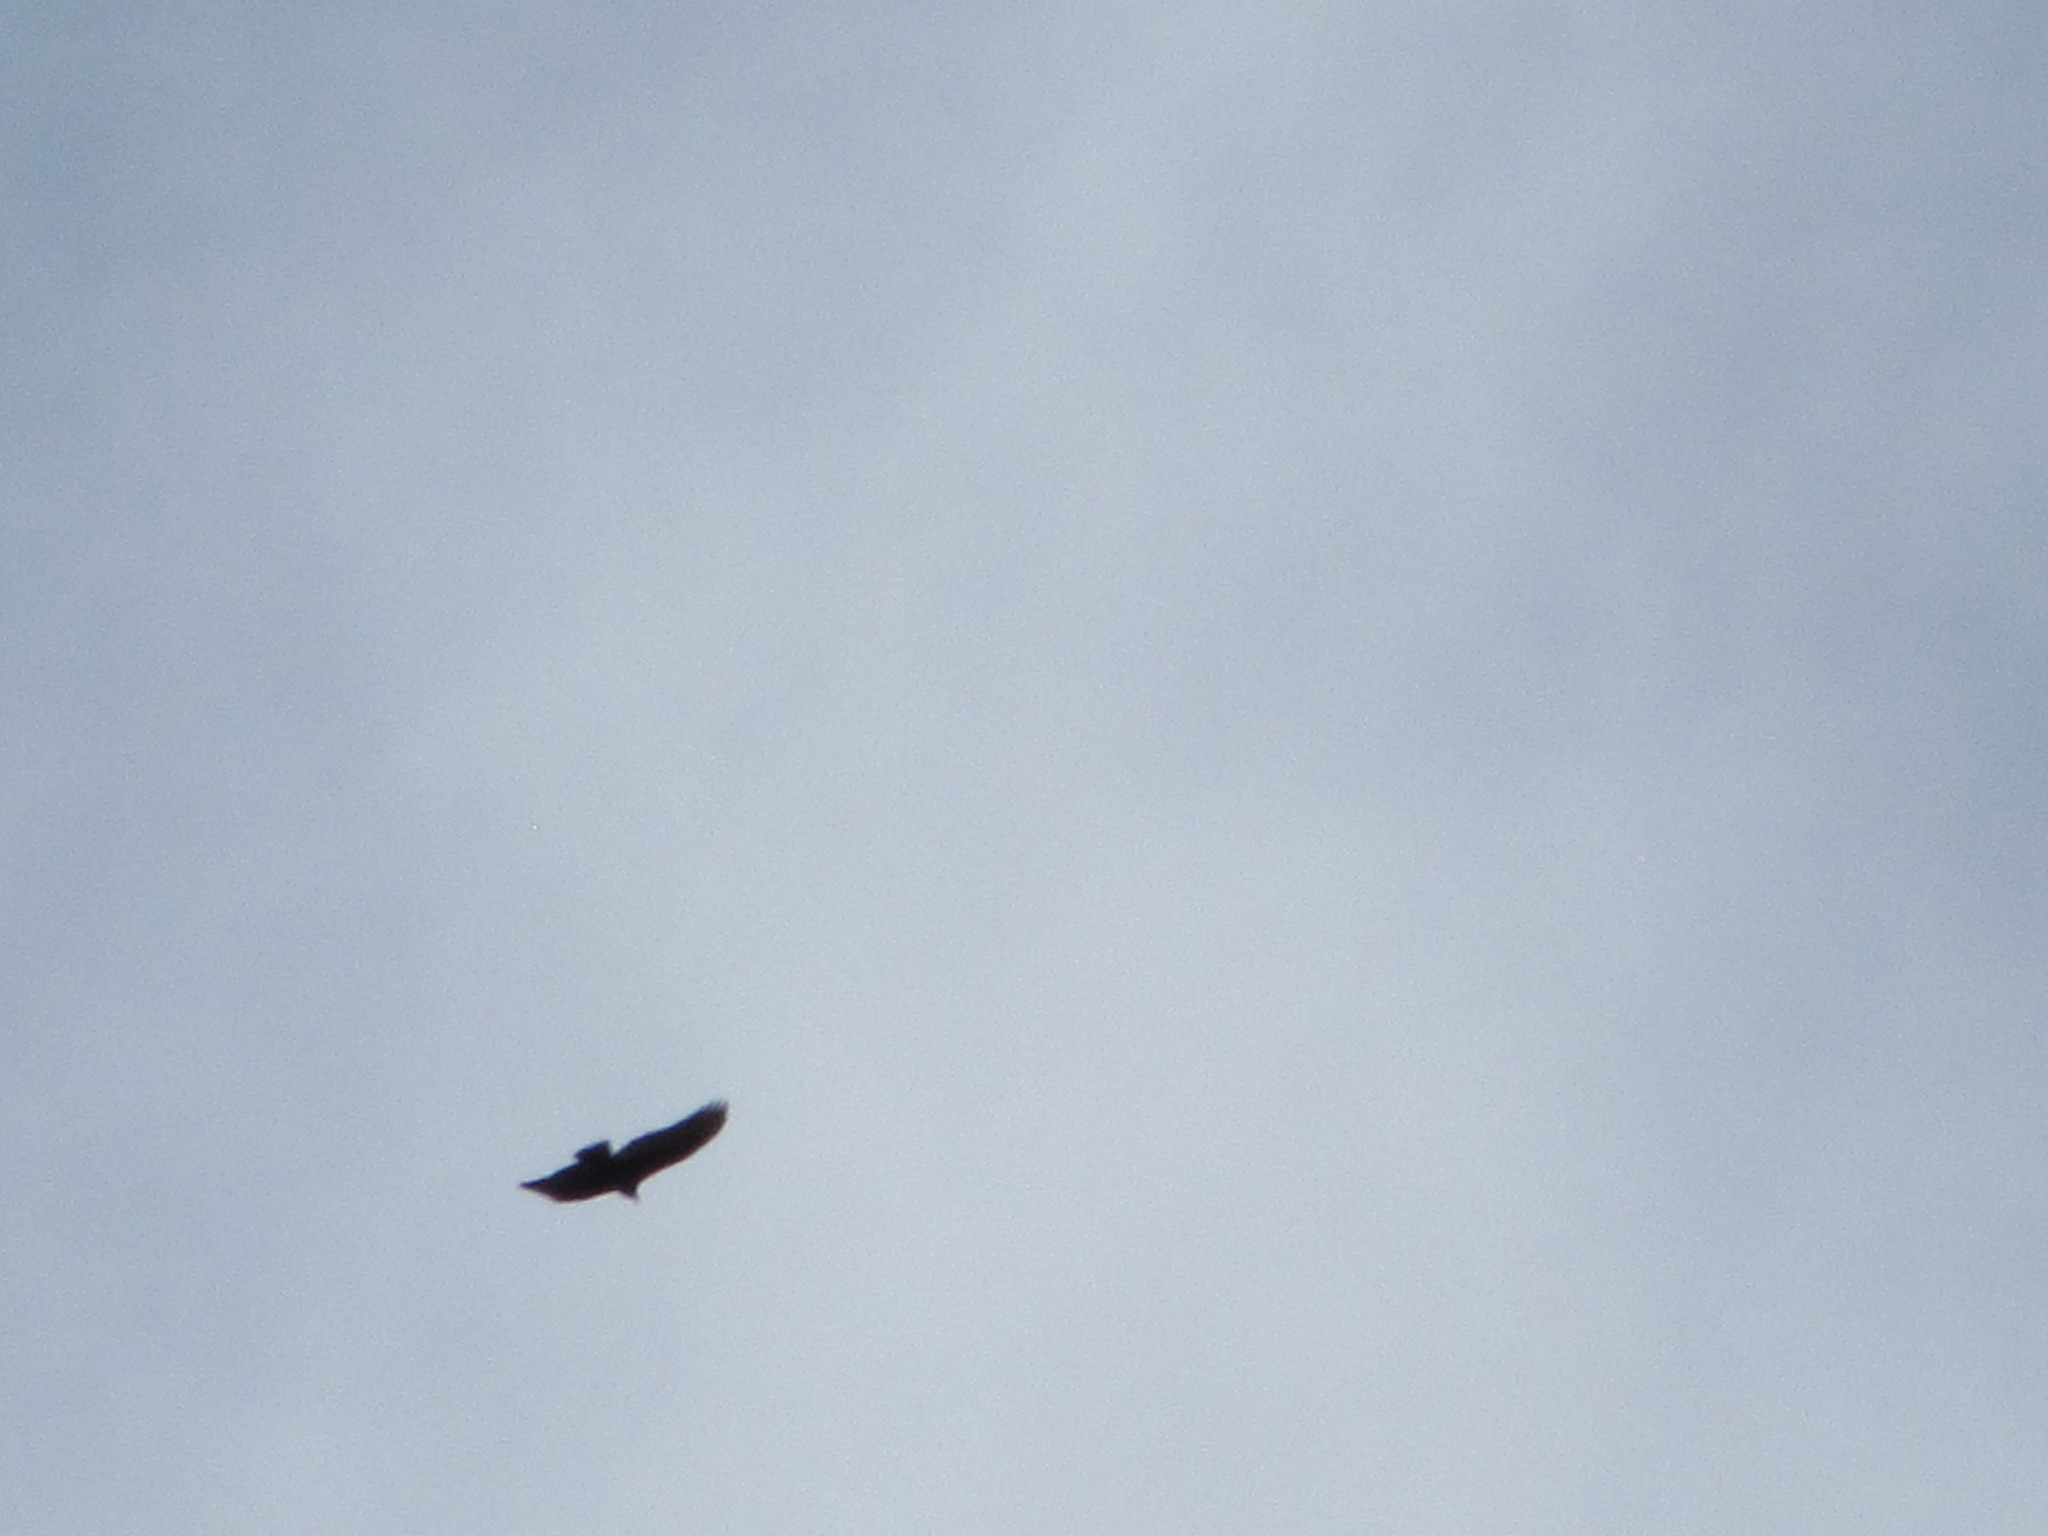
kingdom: Animalia
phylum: Chordata
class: Aves
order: Accipitriformes
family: Cathartidae
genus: Cathartes
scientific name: Cathartes aura
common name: Turkey vulture
